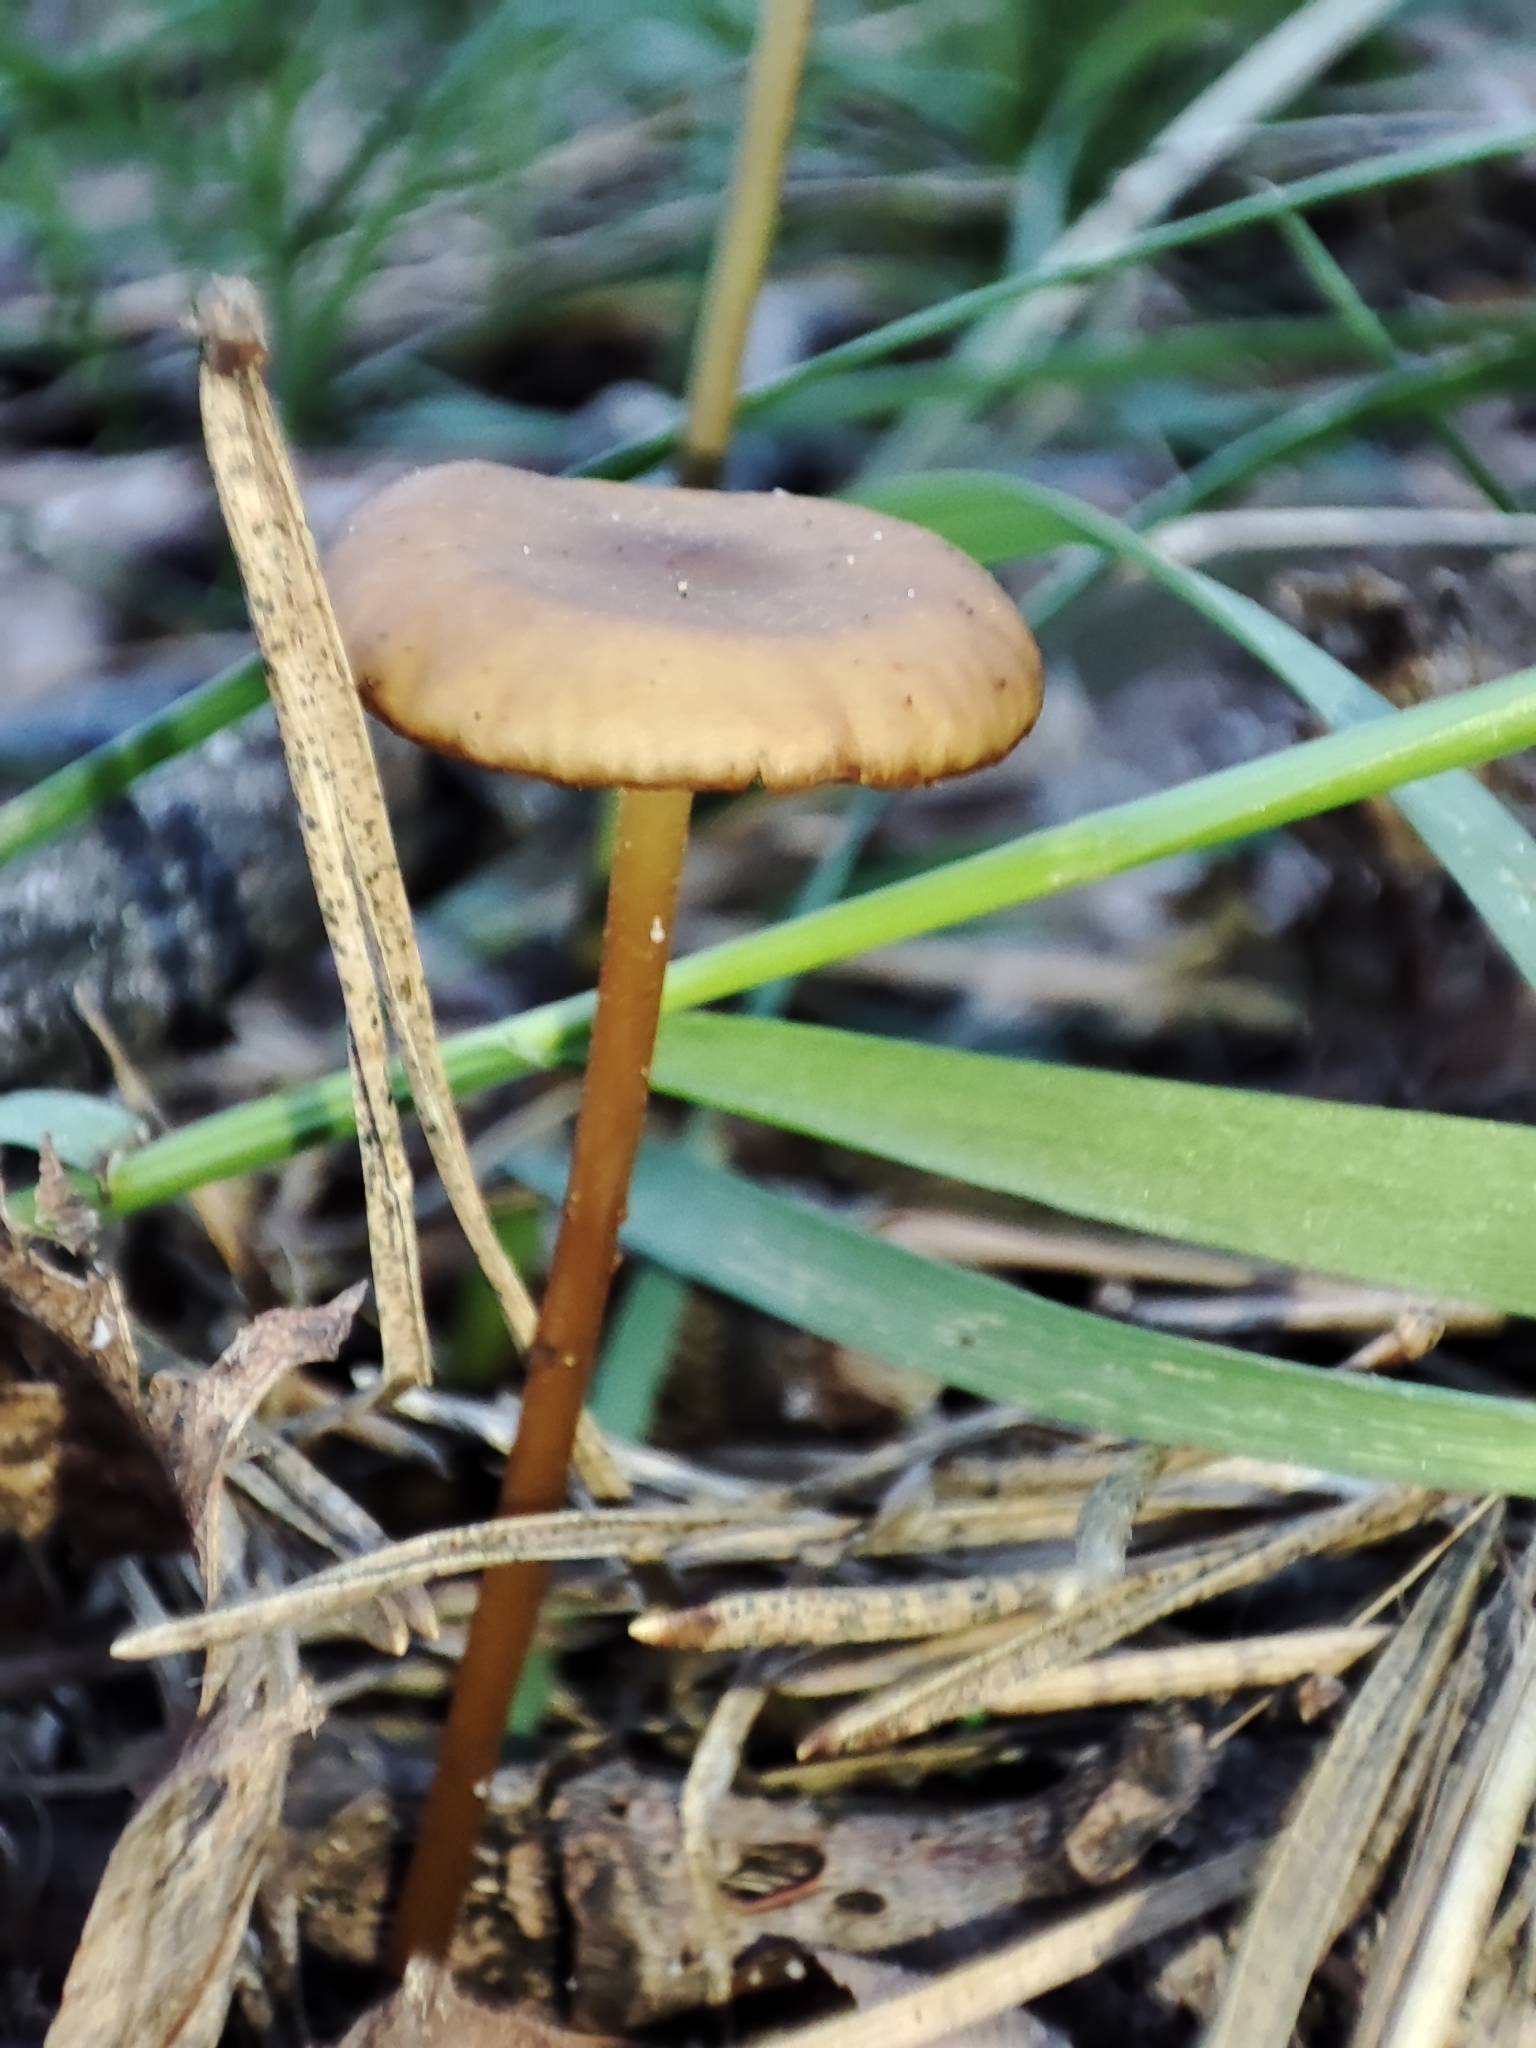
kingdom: Fungi
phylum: Basidiomycota
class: Agaricomycetes
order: Agaricales
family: Physalacriaceae
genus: Strobilurus
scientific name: Strobilurus stephanocystis
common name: Russian conecap
